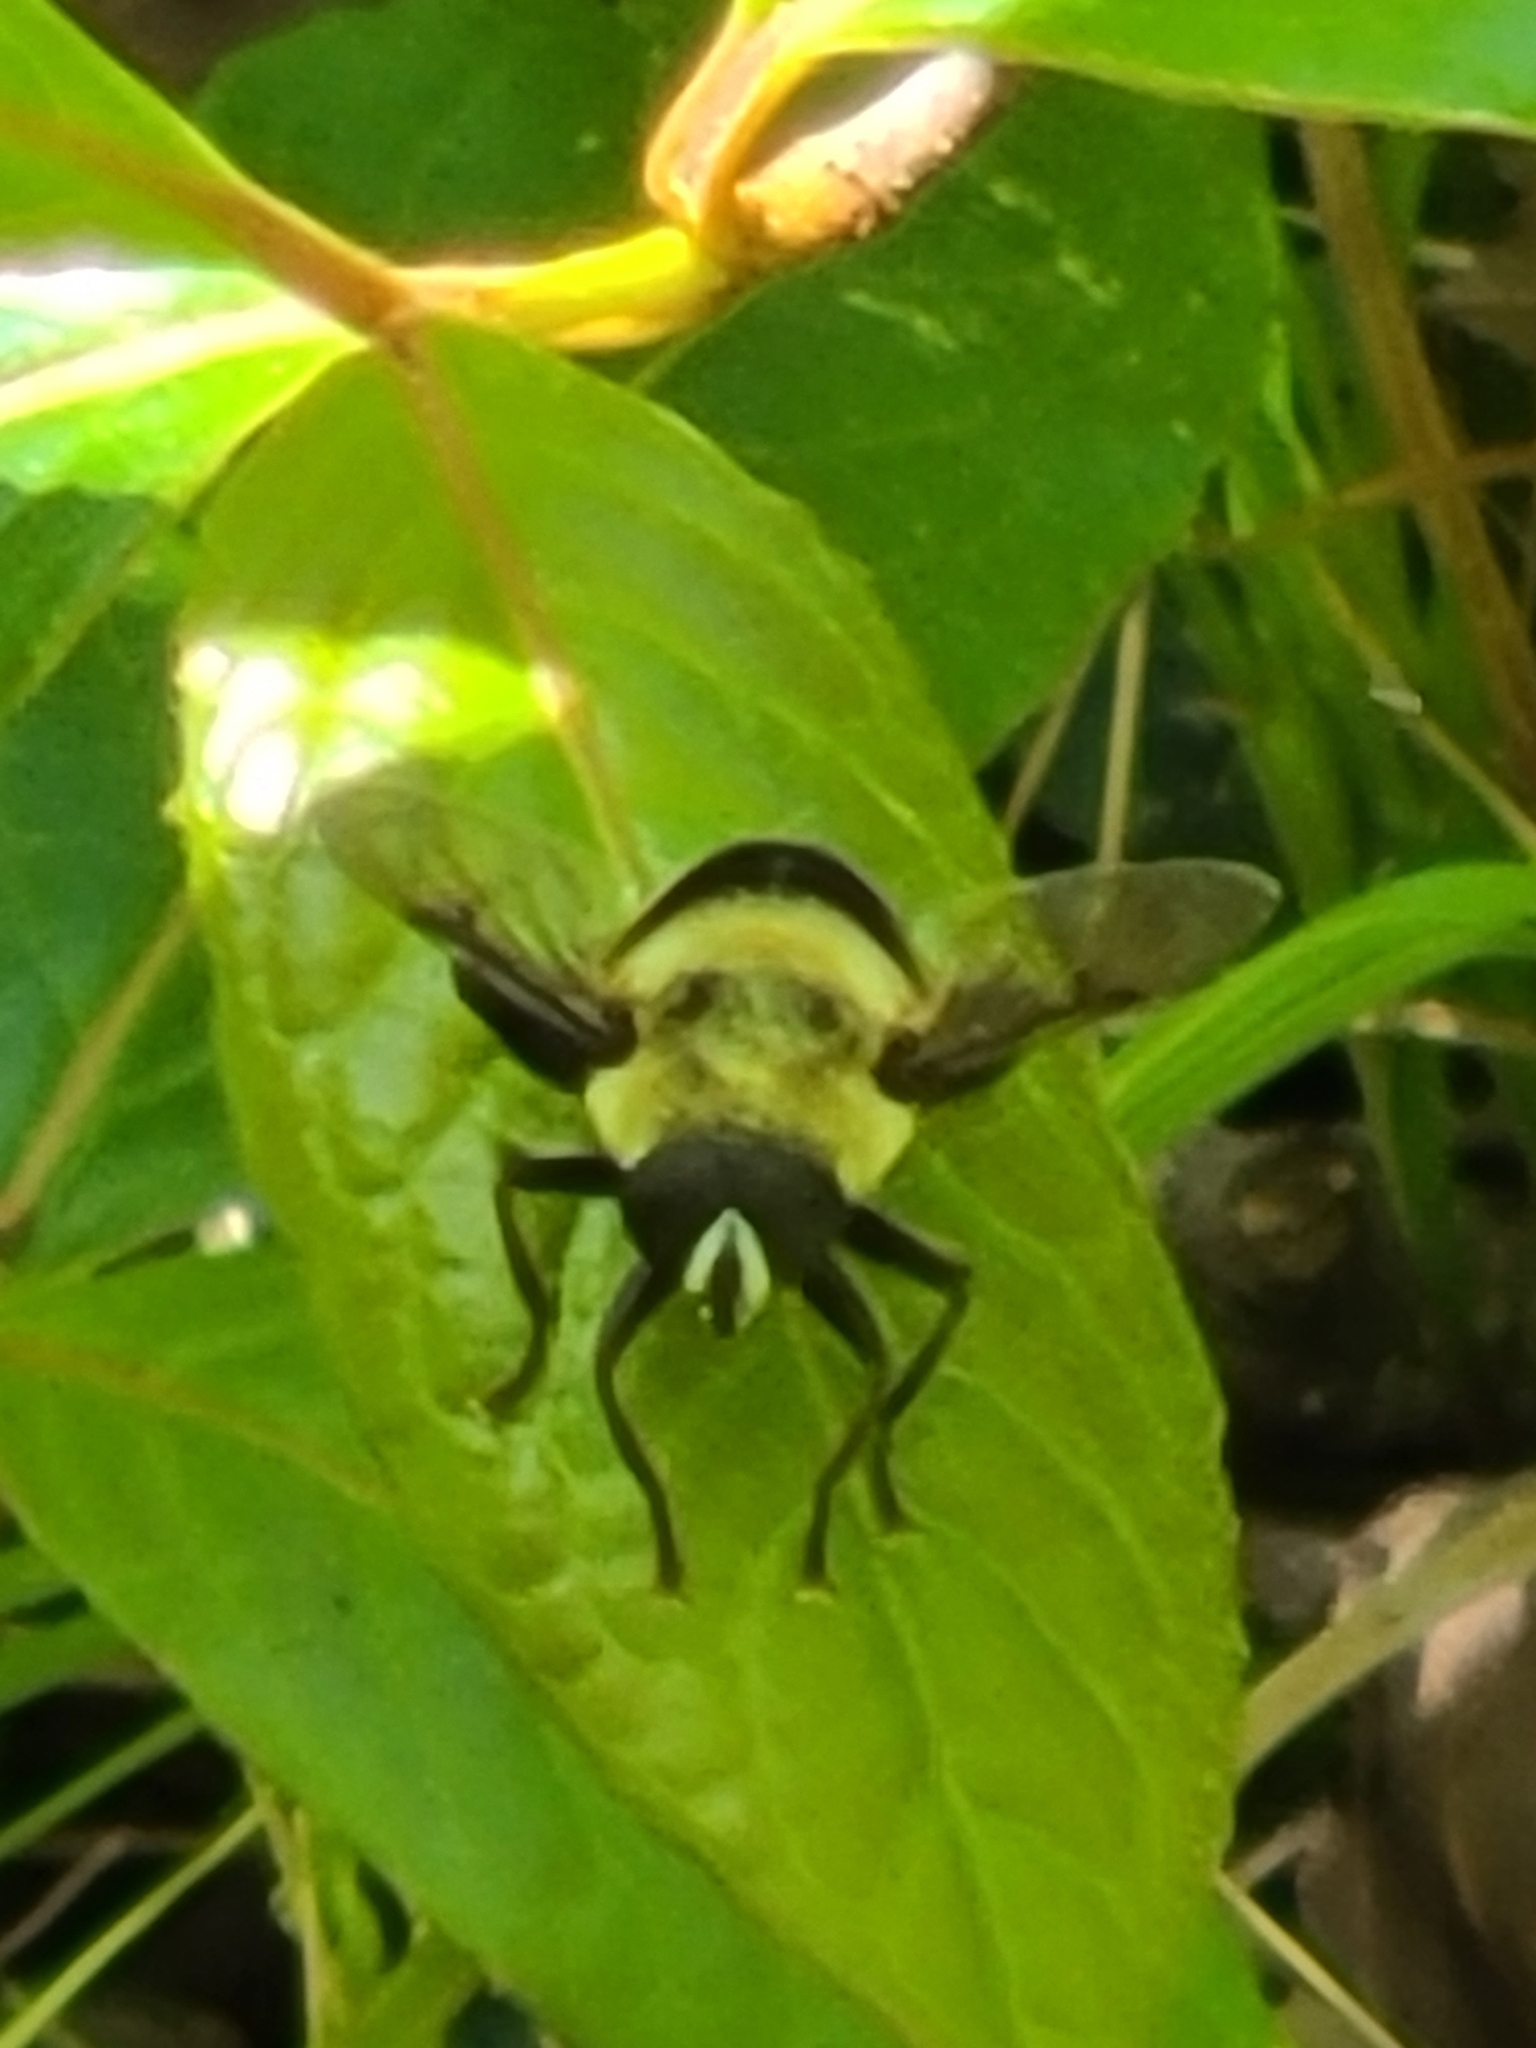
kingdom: Animalia
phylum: Arthropoda
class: Insecta
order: Diptera
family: Syrphidae
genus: Imatisma
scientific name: Imatisma bautias
